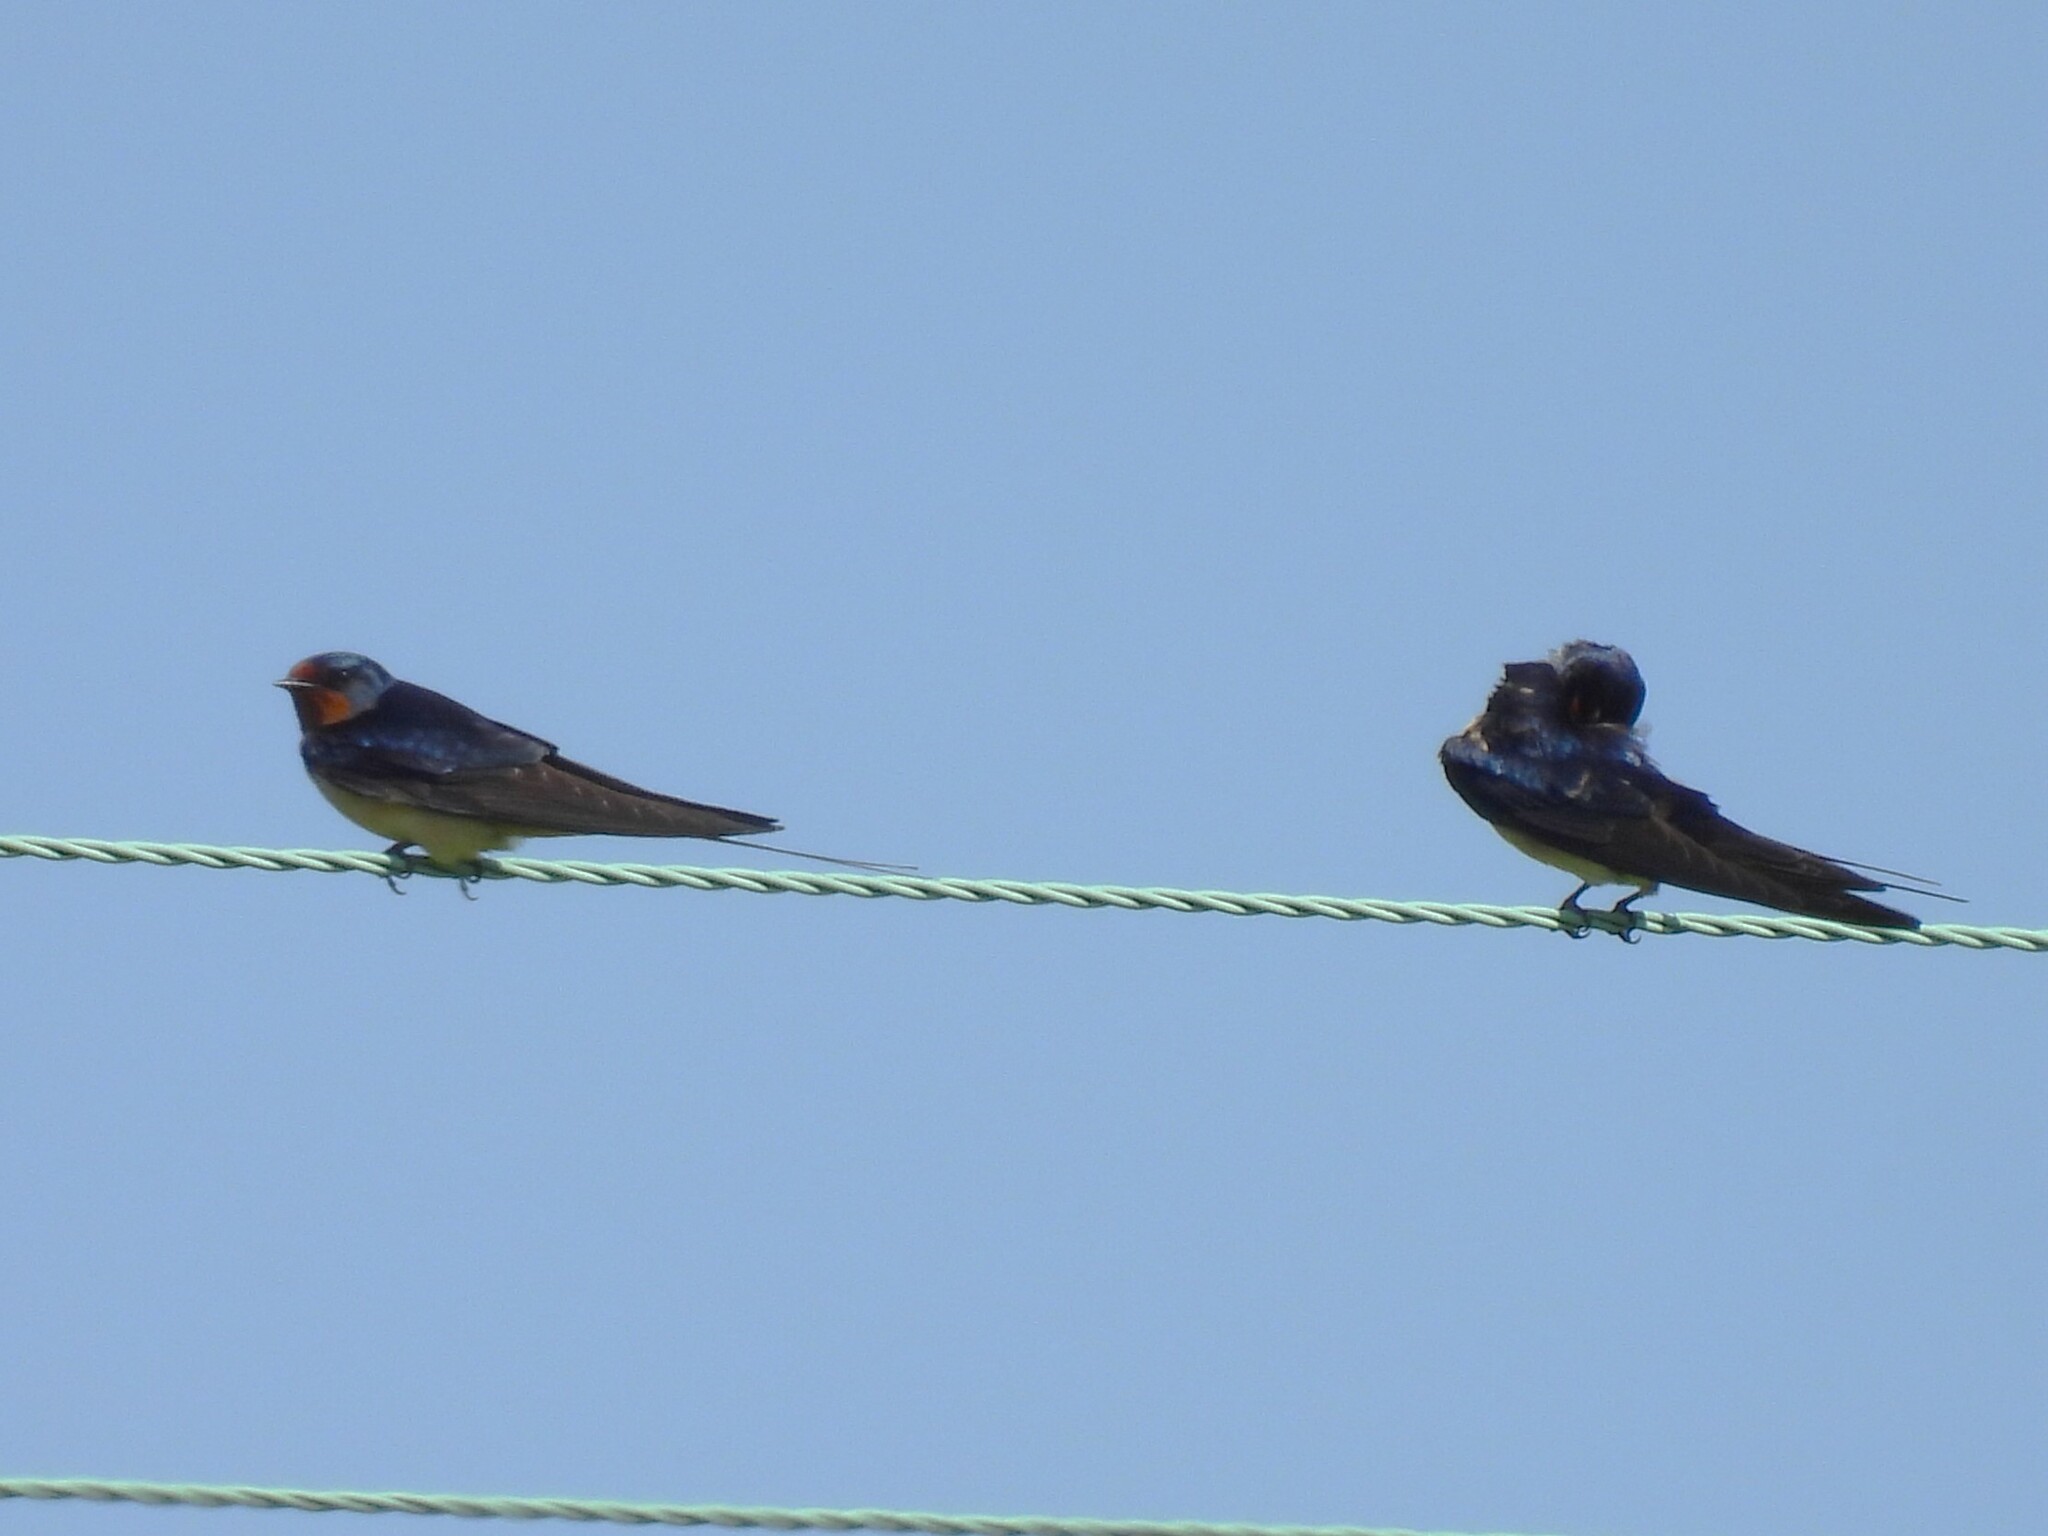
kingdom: Animalia
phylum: Chordata
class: Aves
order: Passeriformes
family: Hirundinidae
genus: Hirundo
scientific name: Hirundo rustica
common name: Barn swallow
